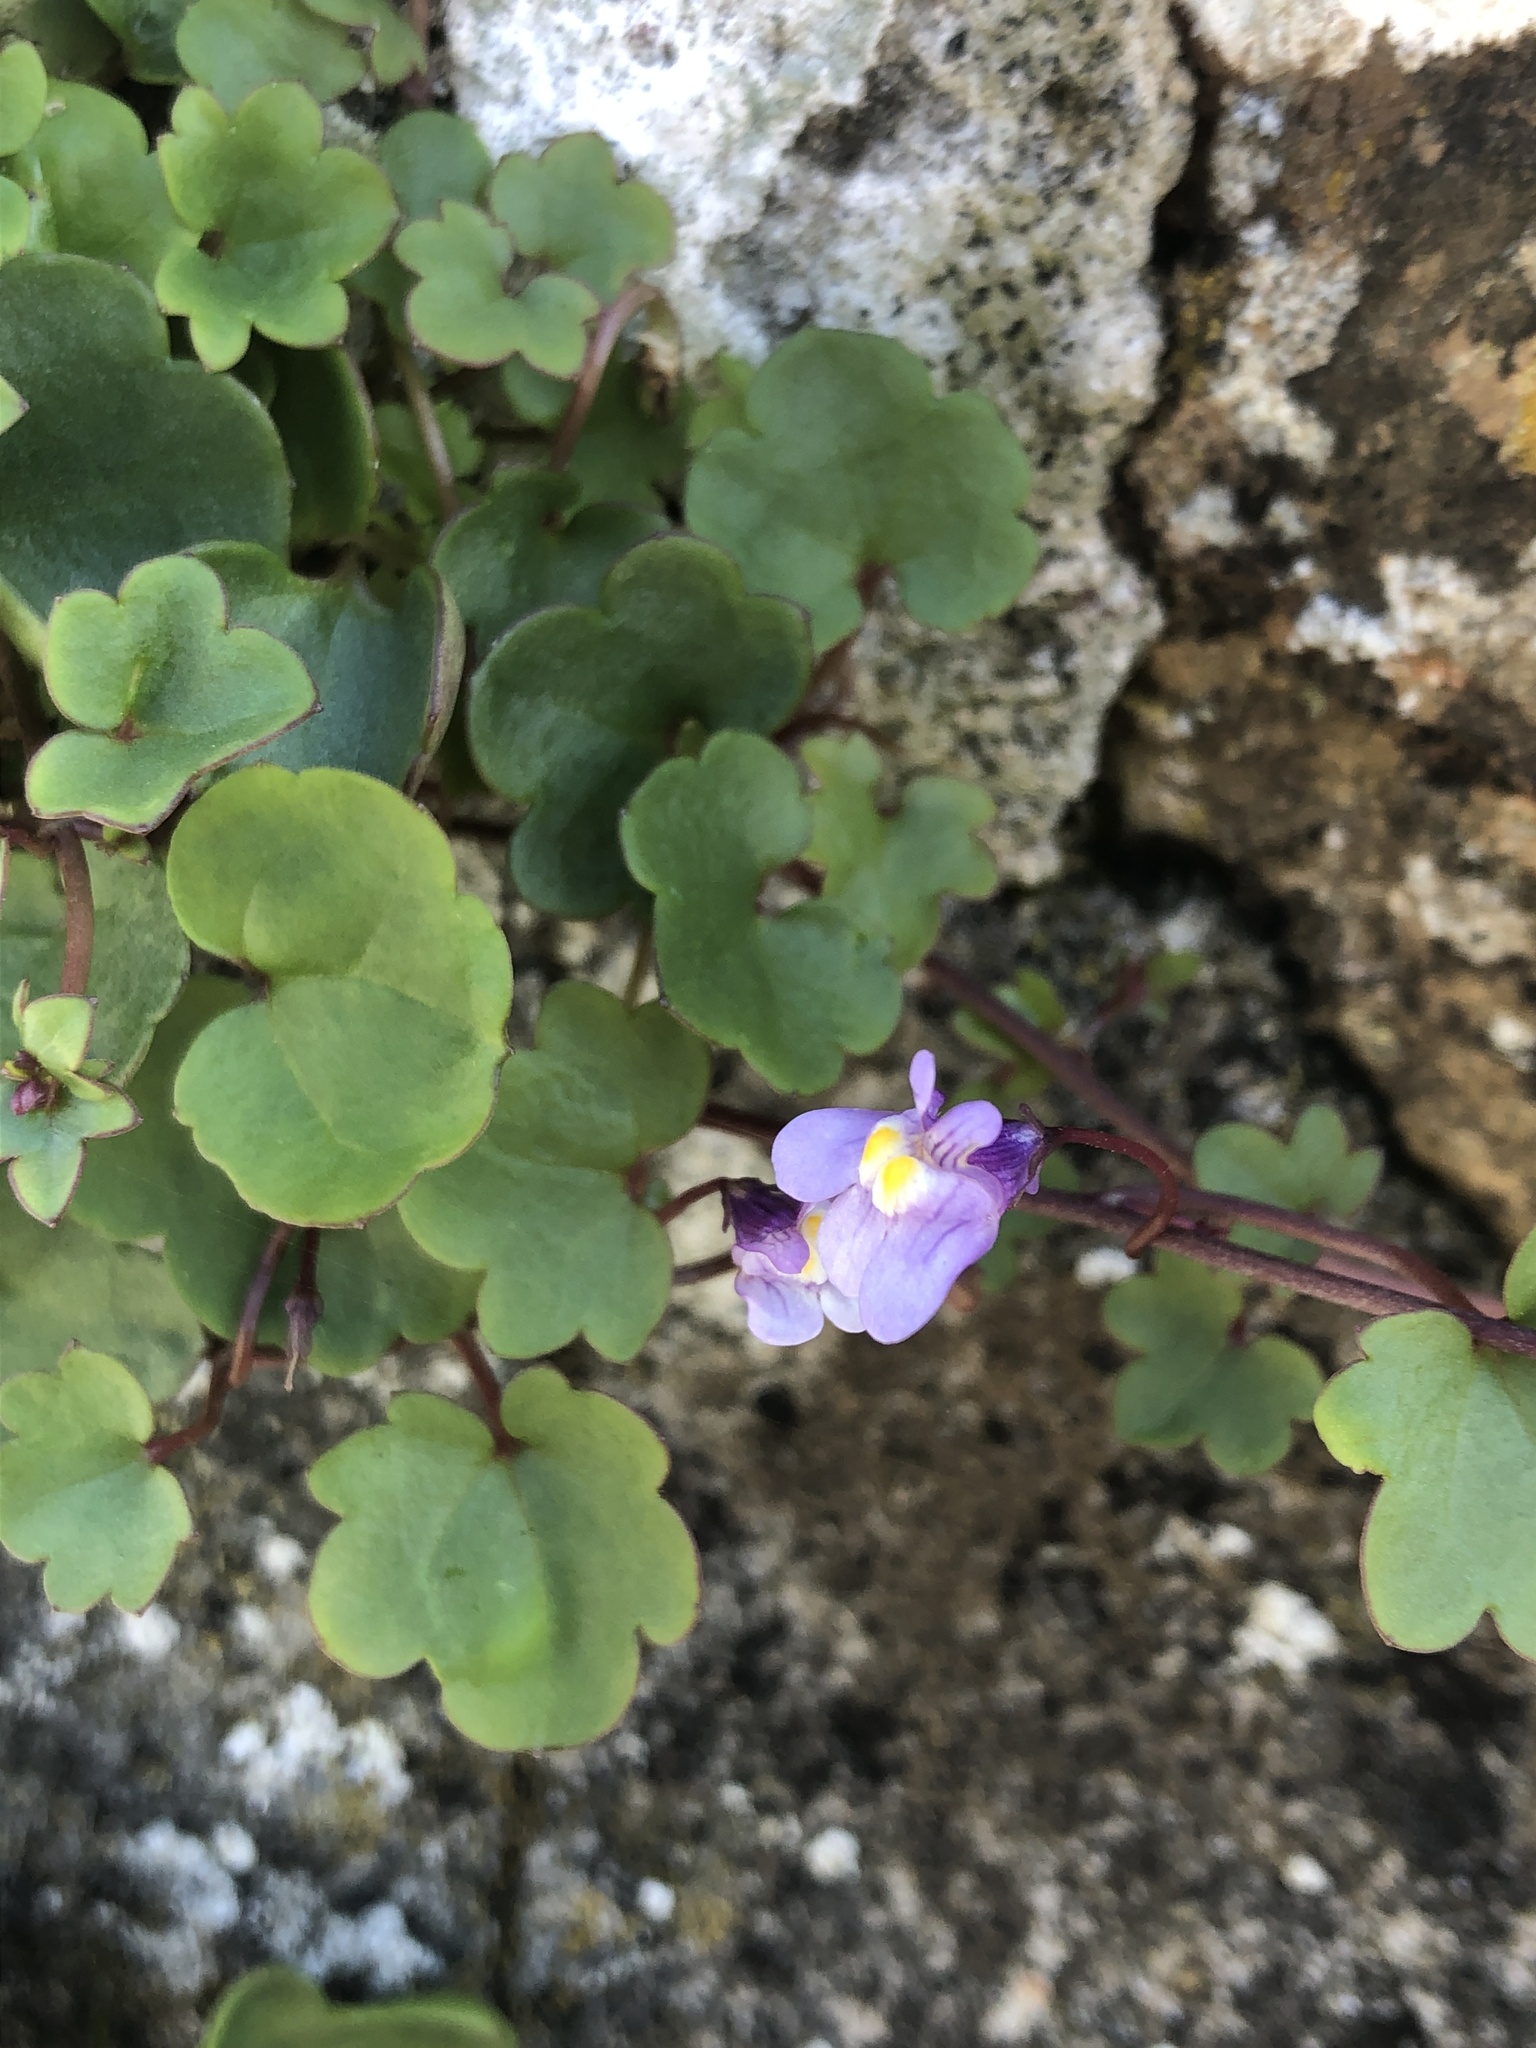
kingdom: Plantae
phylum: Tracheophyta
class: Magnoliopsida
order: Lamiales
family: Plantaginaceae
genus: Cymbalaria
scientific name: Cymbalaria muralis
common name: Ivy-leaved toadflax
